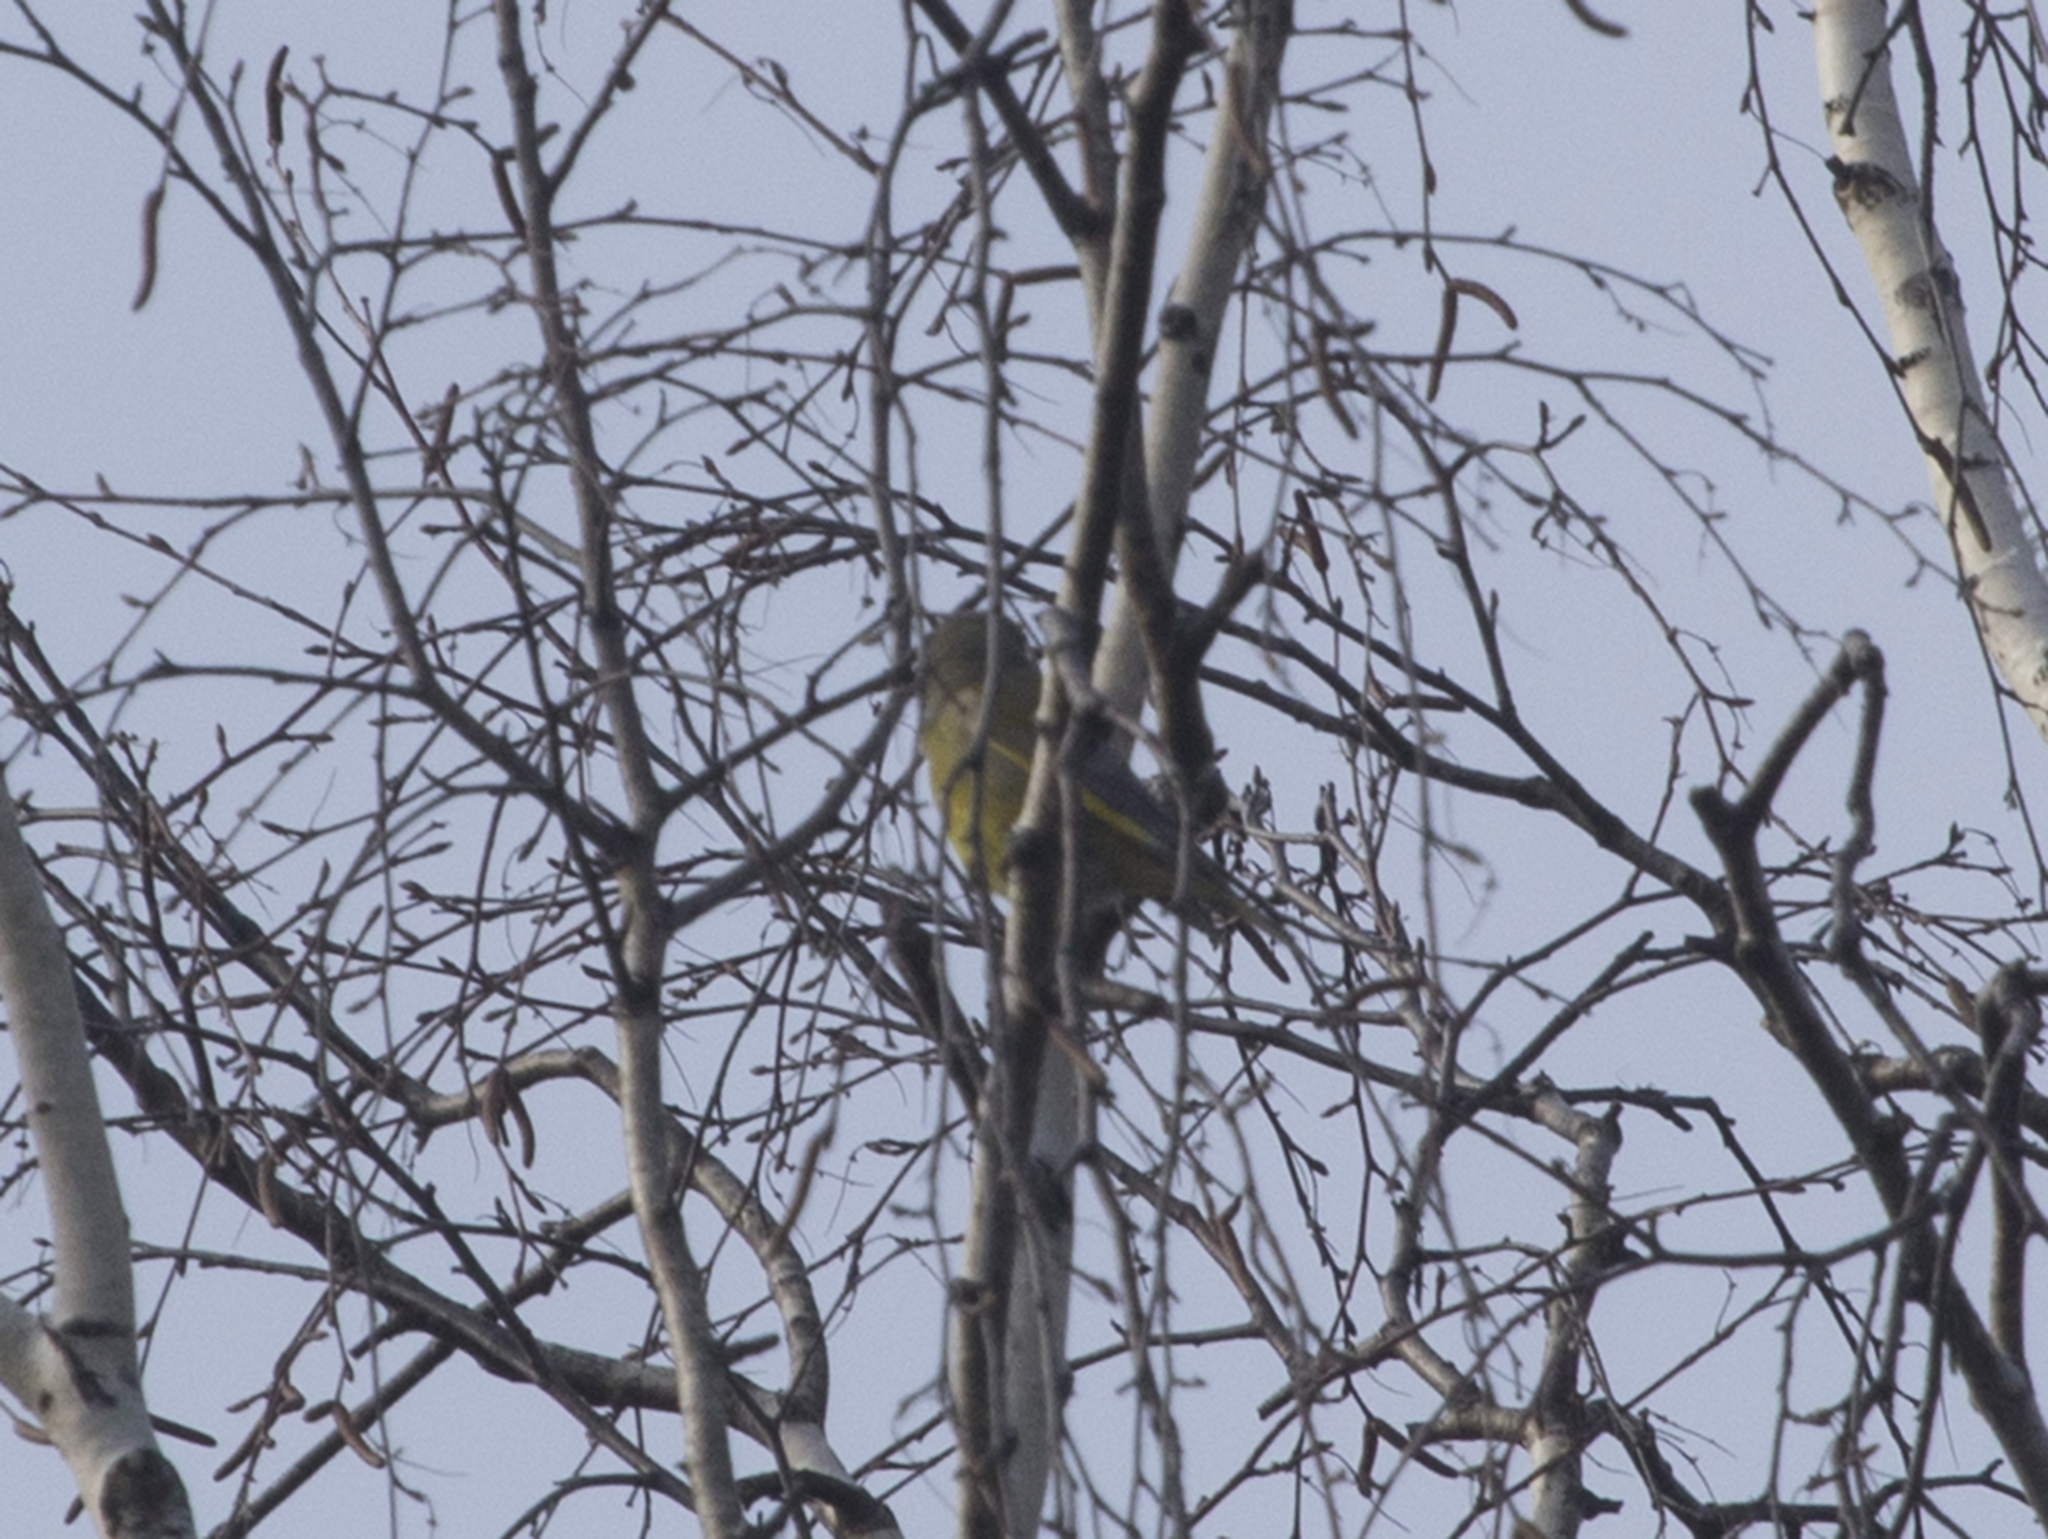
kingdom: Plantae
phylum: Tracheophyta
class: Liliopsida
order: Poales
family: Poaceae
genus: Chloris
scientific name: Chloris chloris
